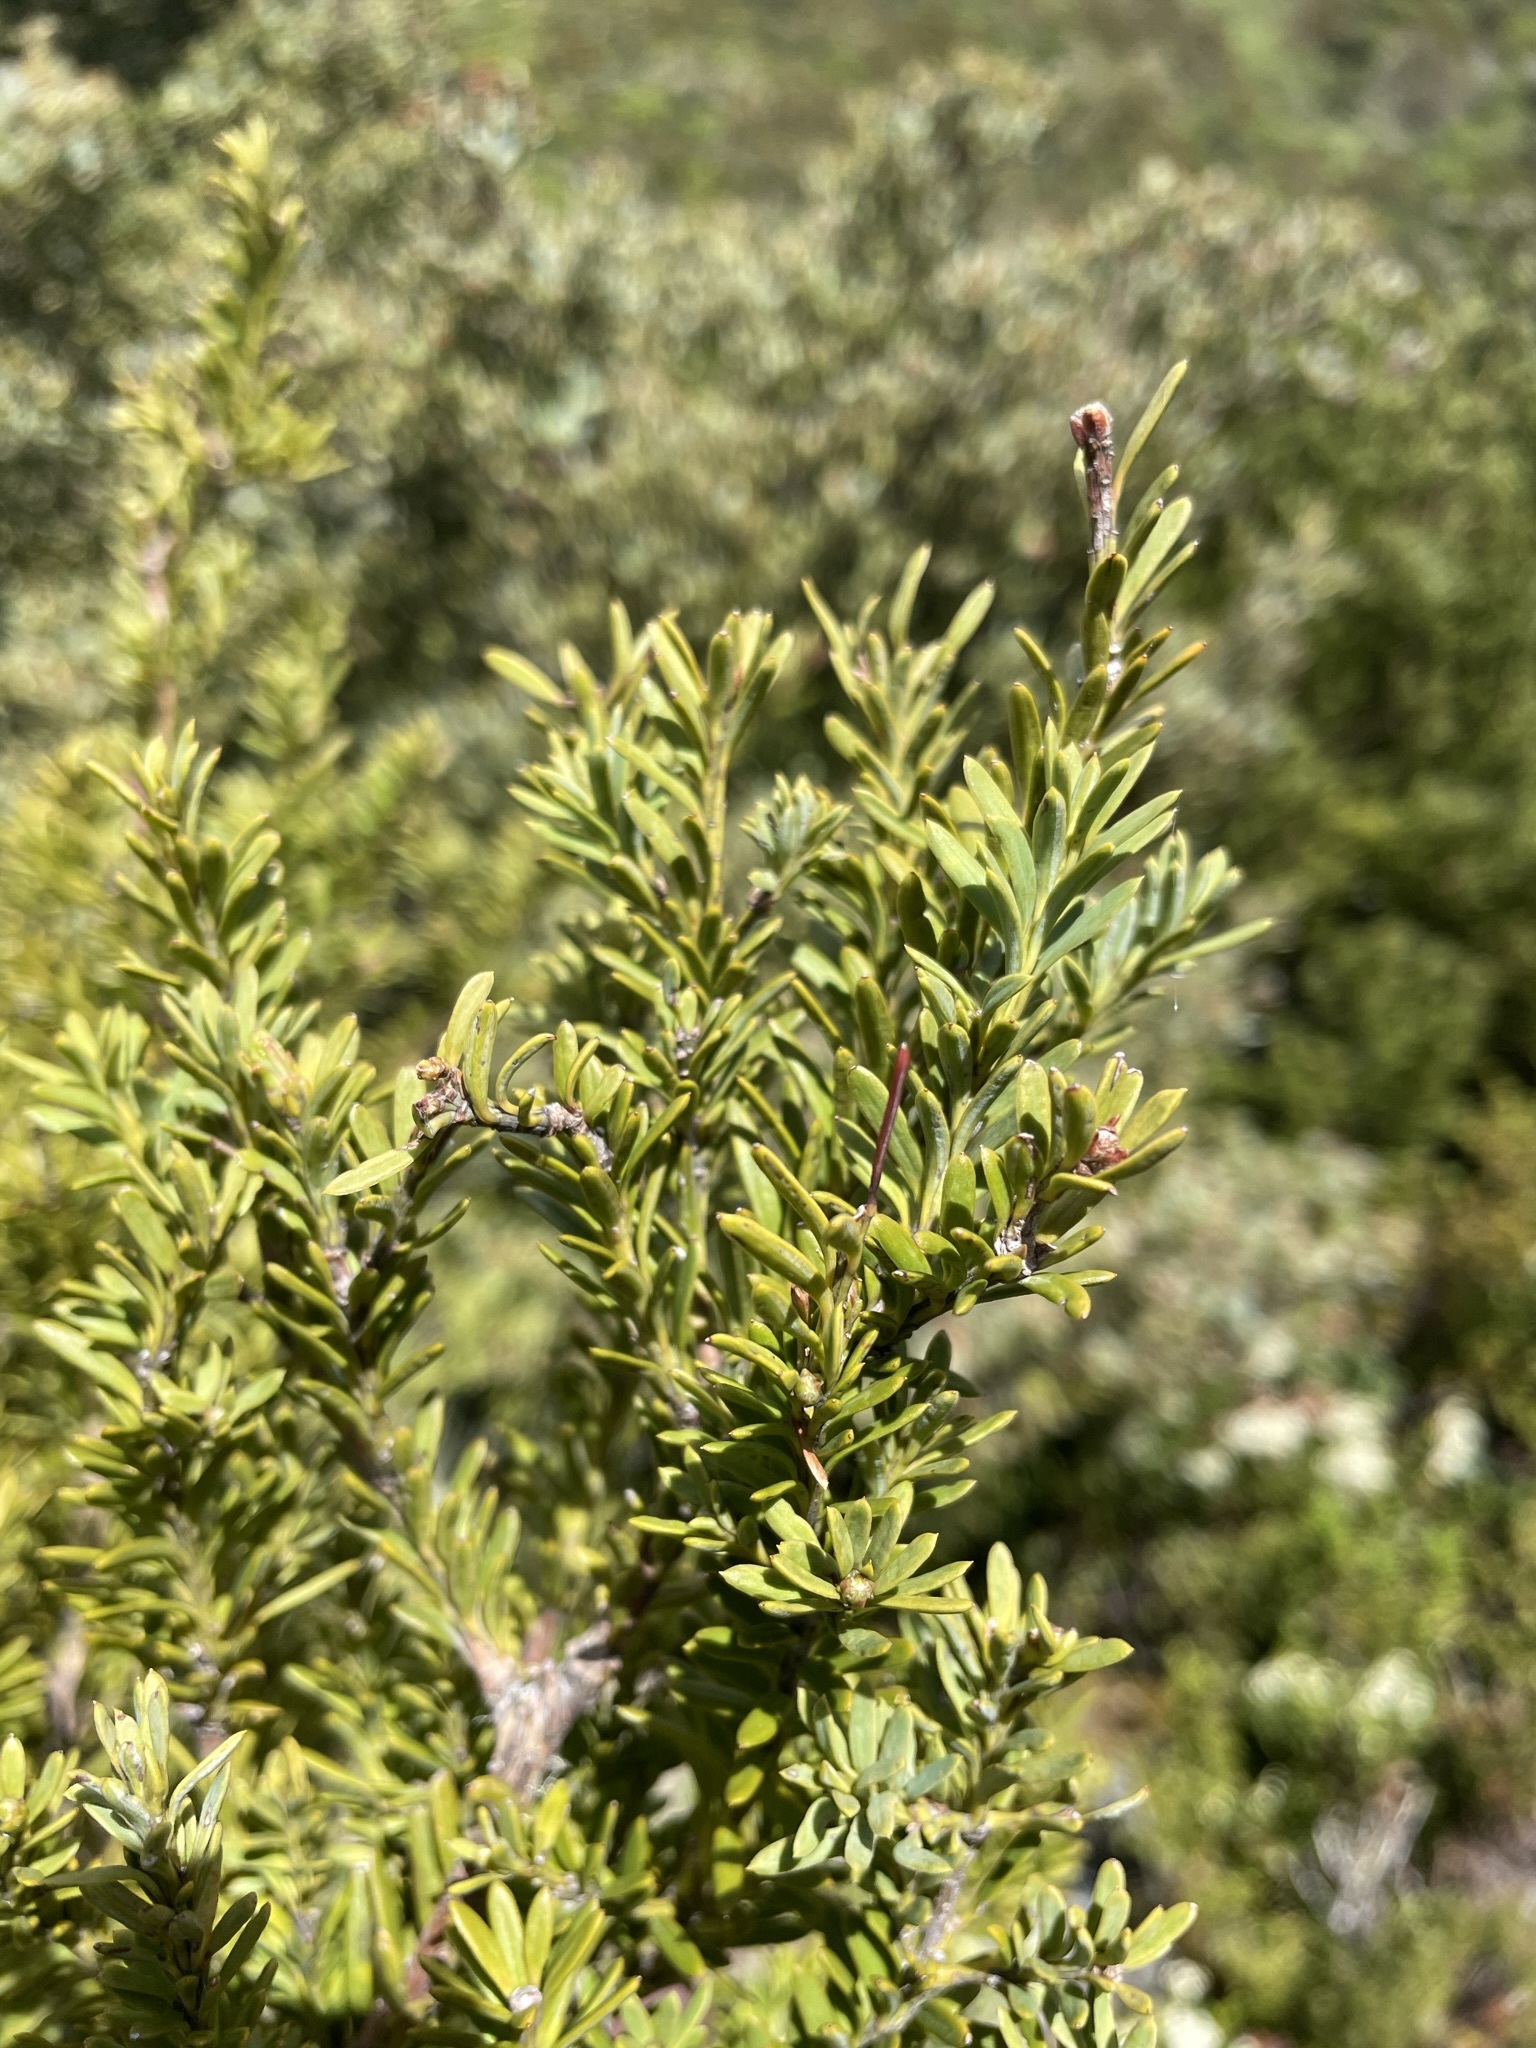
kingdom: Plantae
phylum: Tracheophyta
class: Pinopsida
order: Pinales
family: Podocarpaceae
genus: Podocarpus
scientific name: Podocarpus nivalis
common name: Alpine totara
